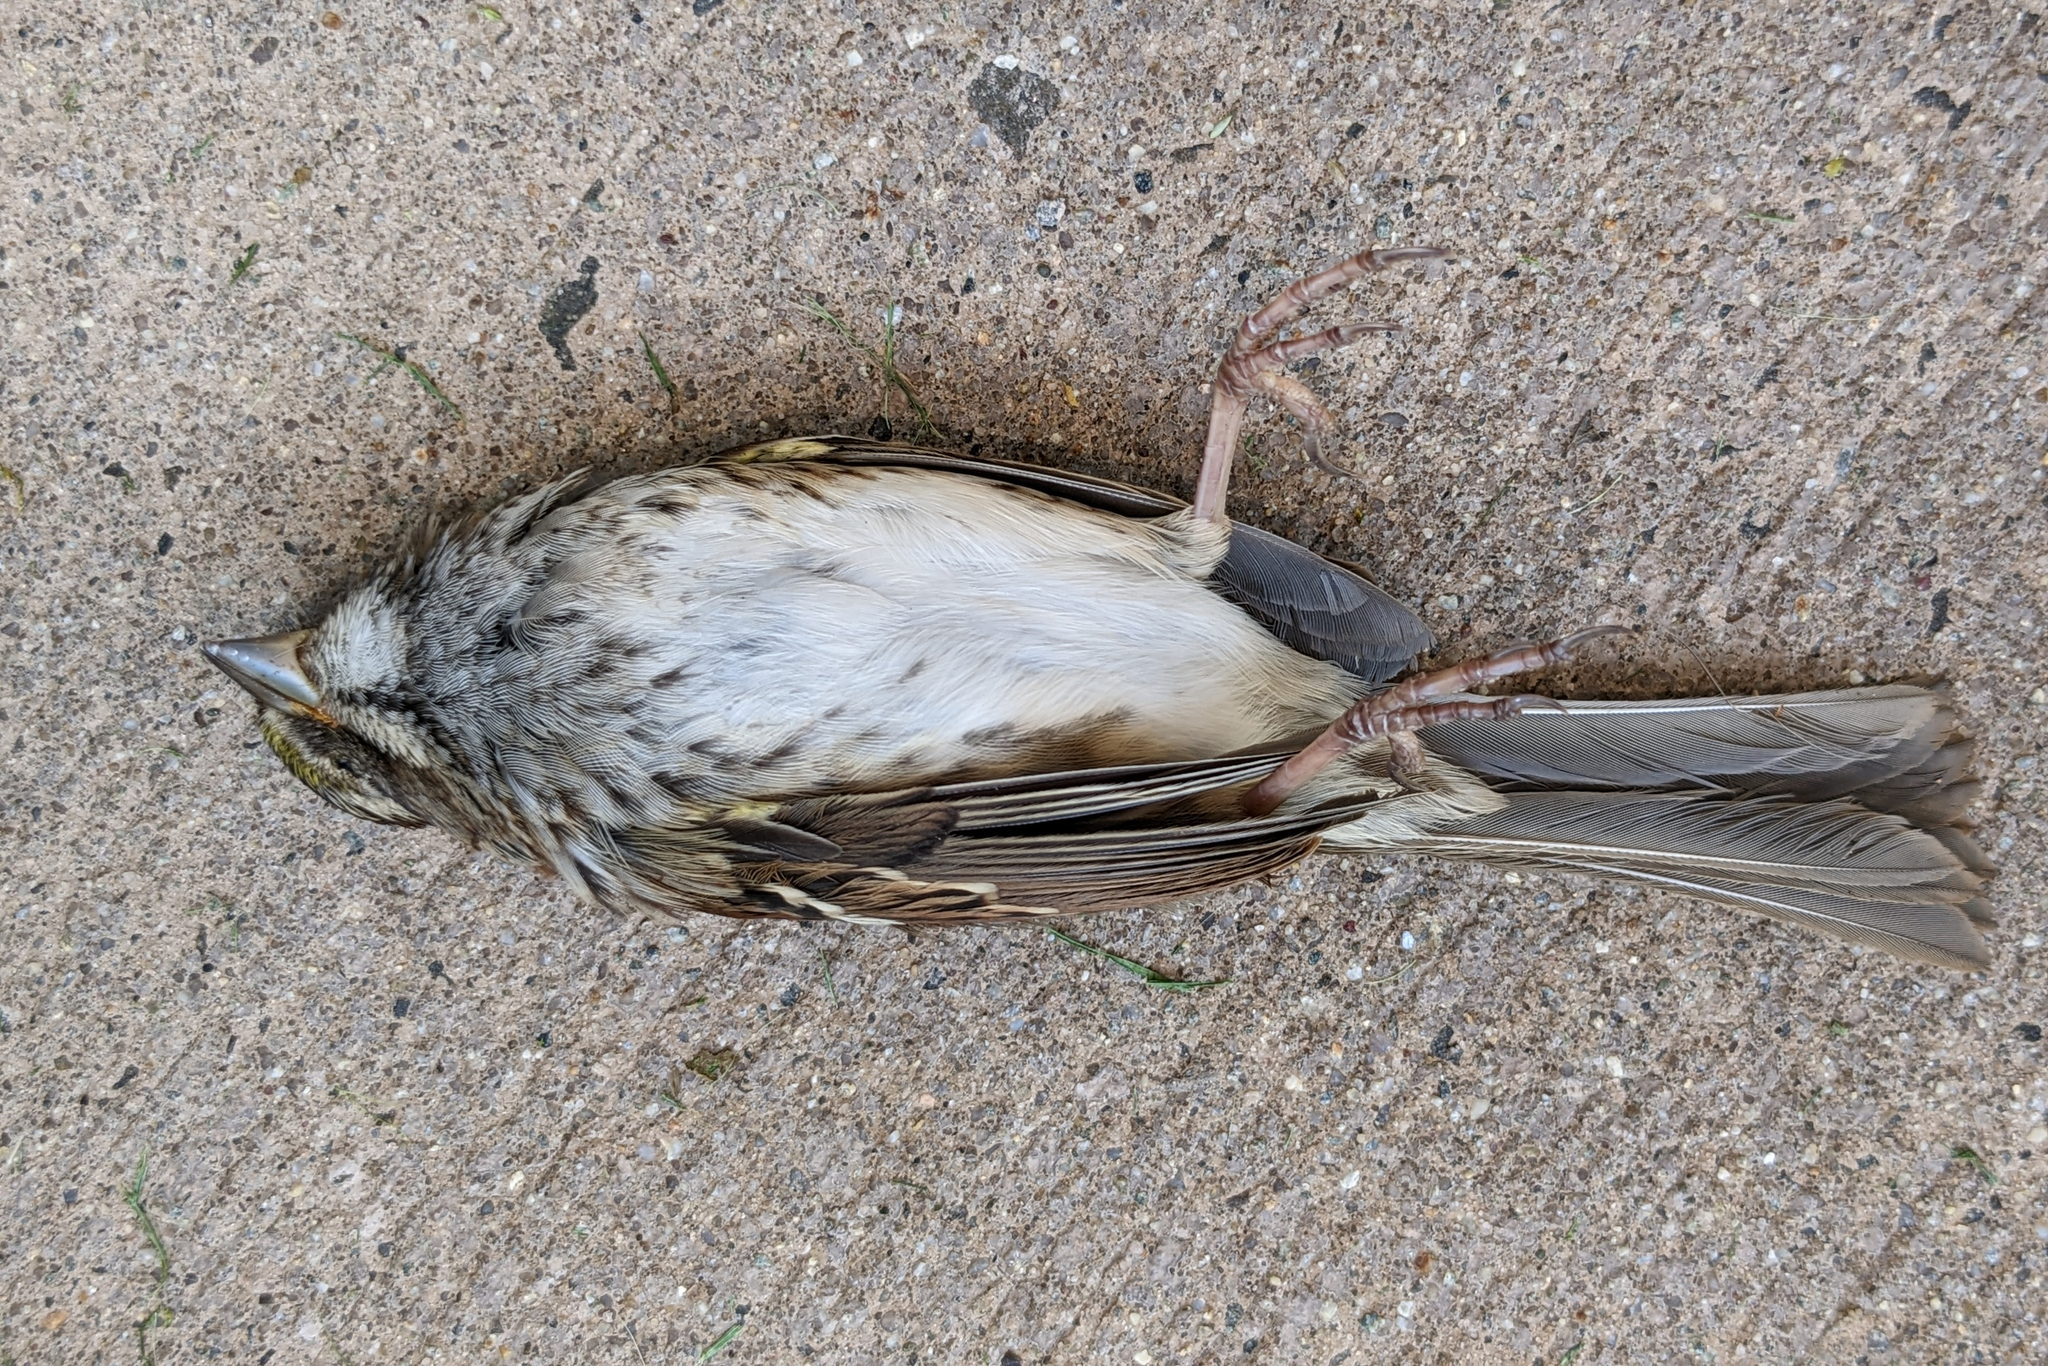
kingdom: Animalia
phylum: Chordata
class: Aves
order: Passeriformes
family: Passerellidae
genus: Zonotrichia
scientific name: Zonotrichia albicollis
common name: White-throated sparrow
